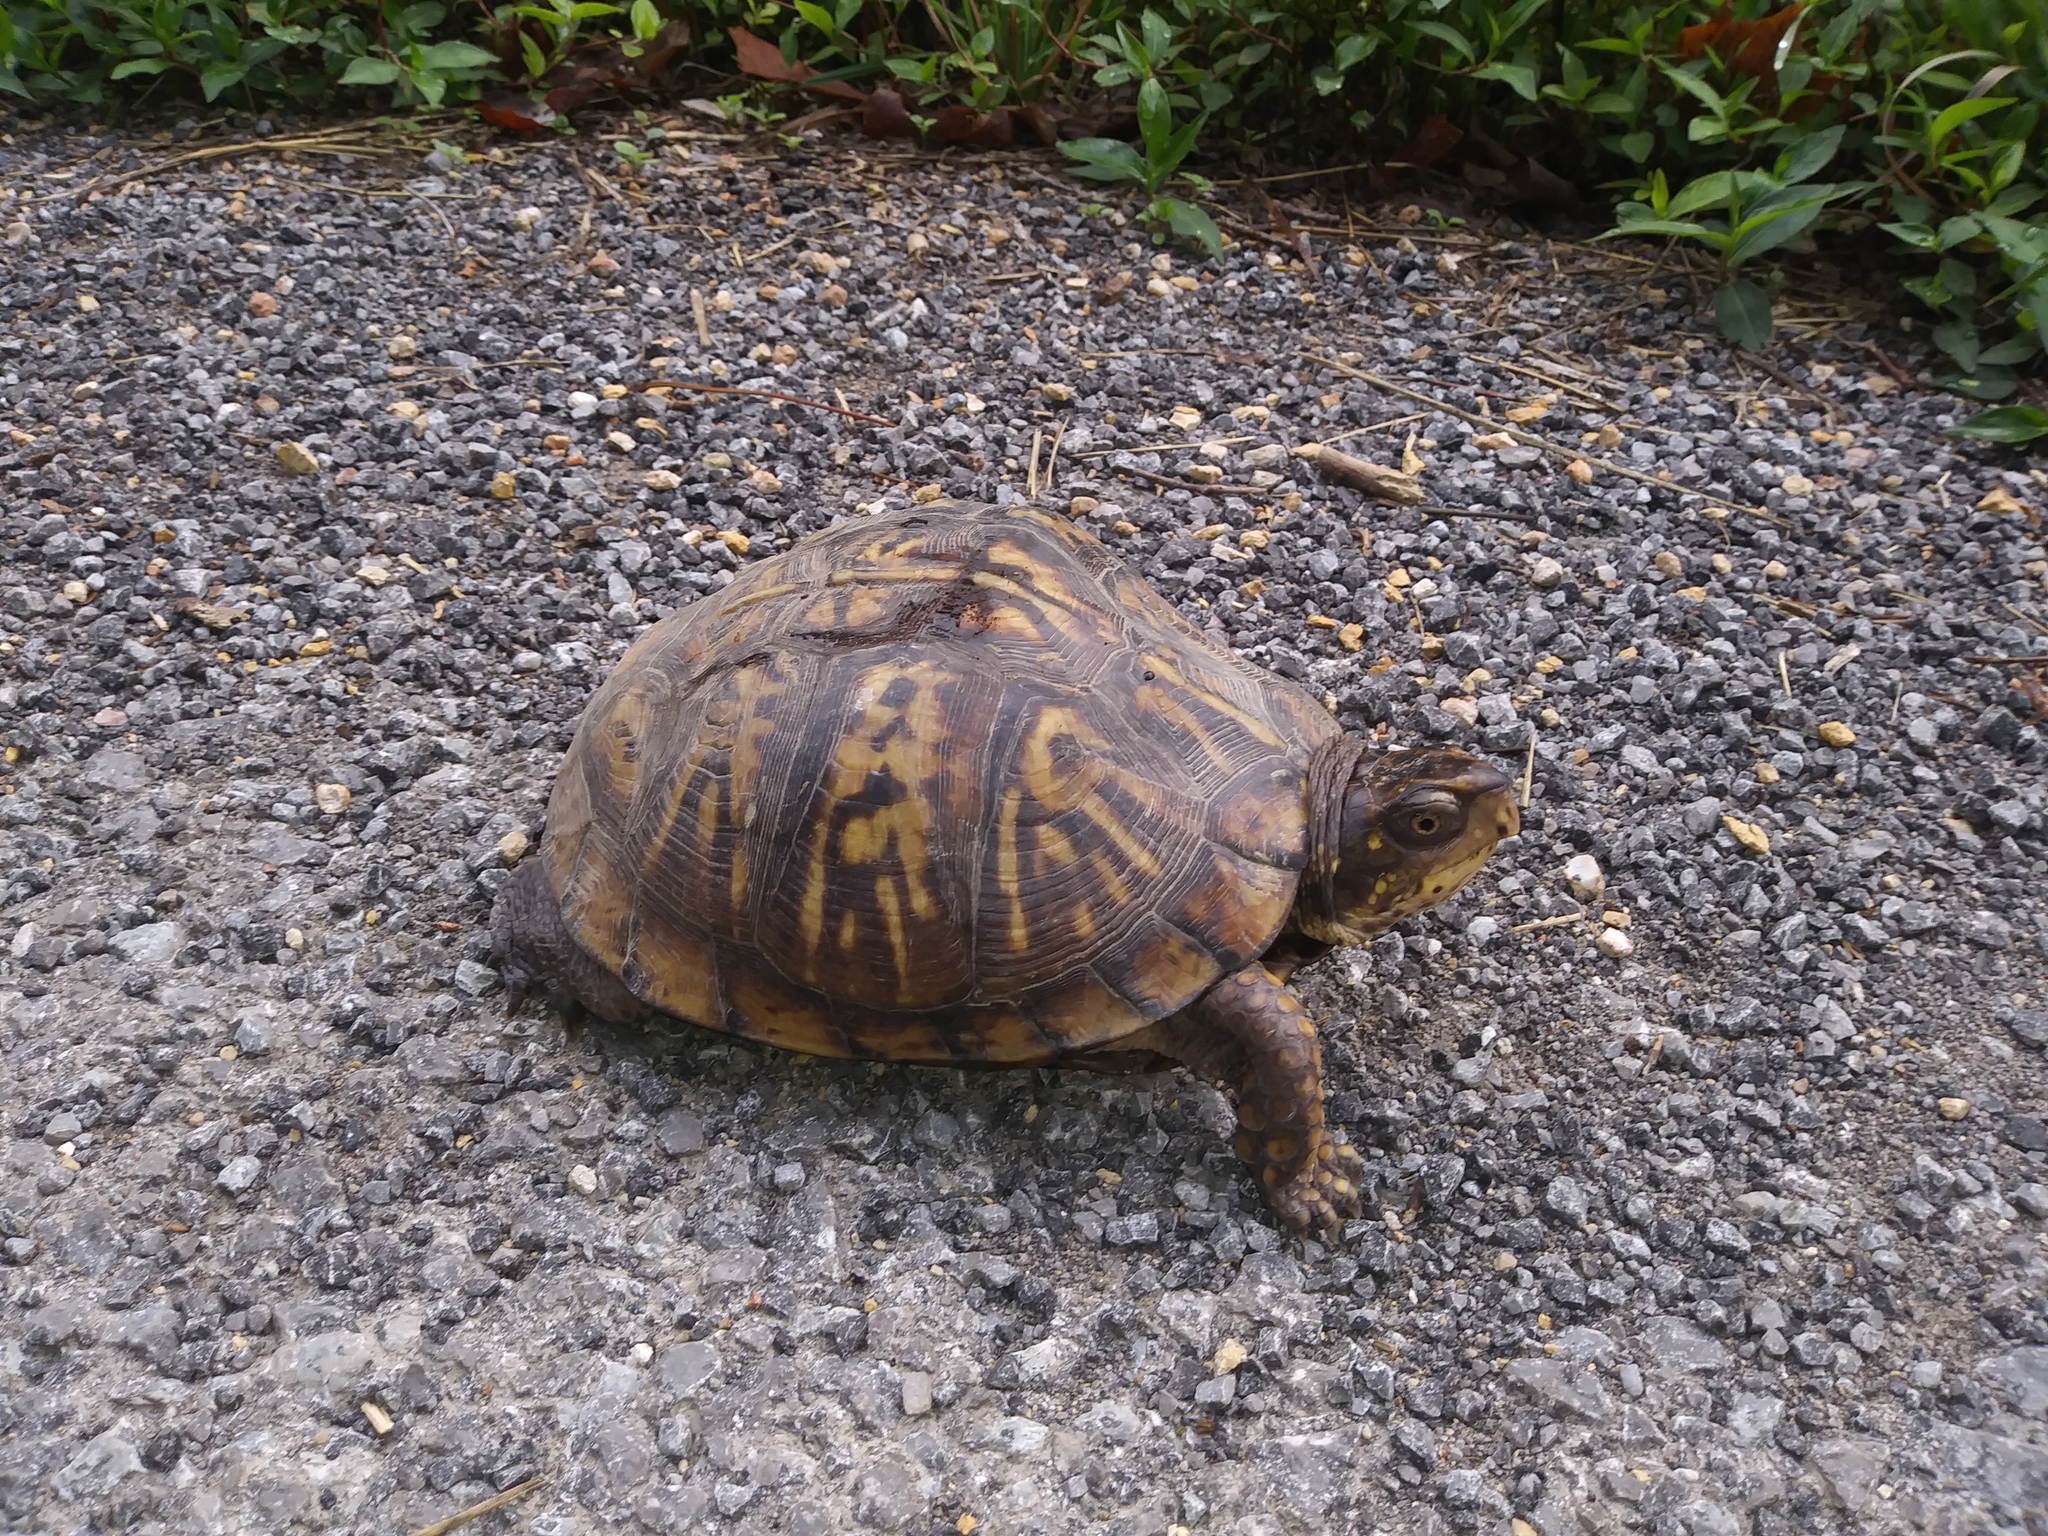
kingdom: Animalia
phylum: Chordata
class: Testudines
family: Emydidae
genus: Terrapene
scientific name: Terrapene carolina
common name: Common box turtle
